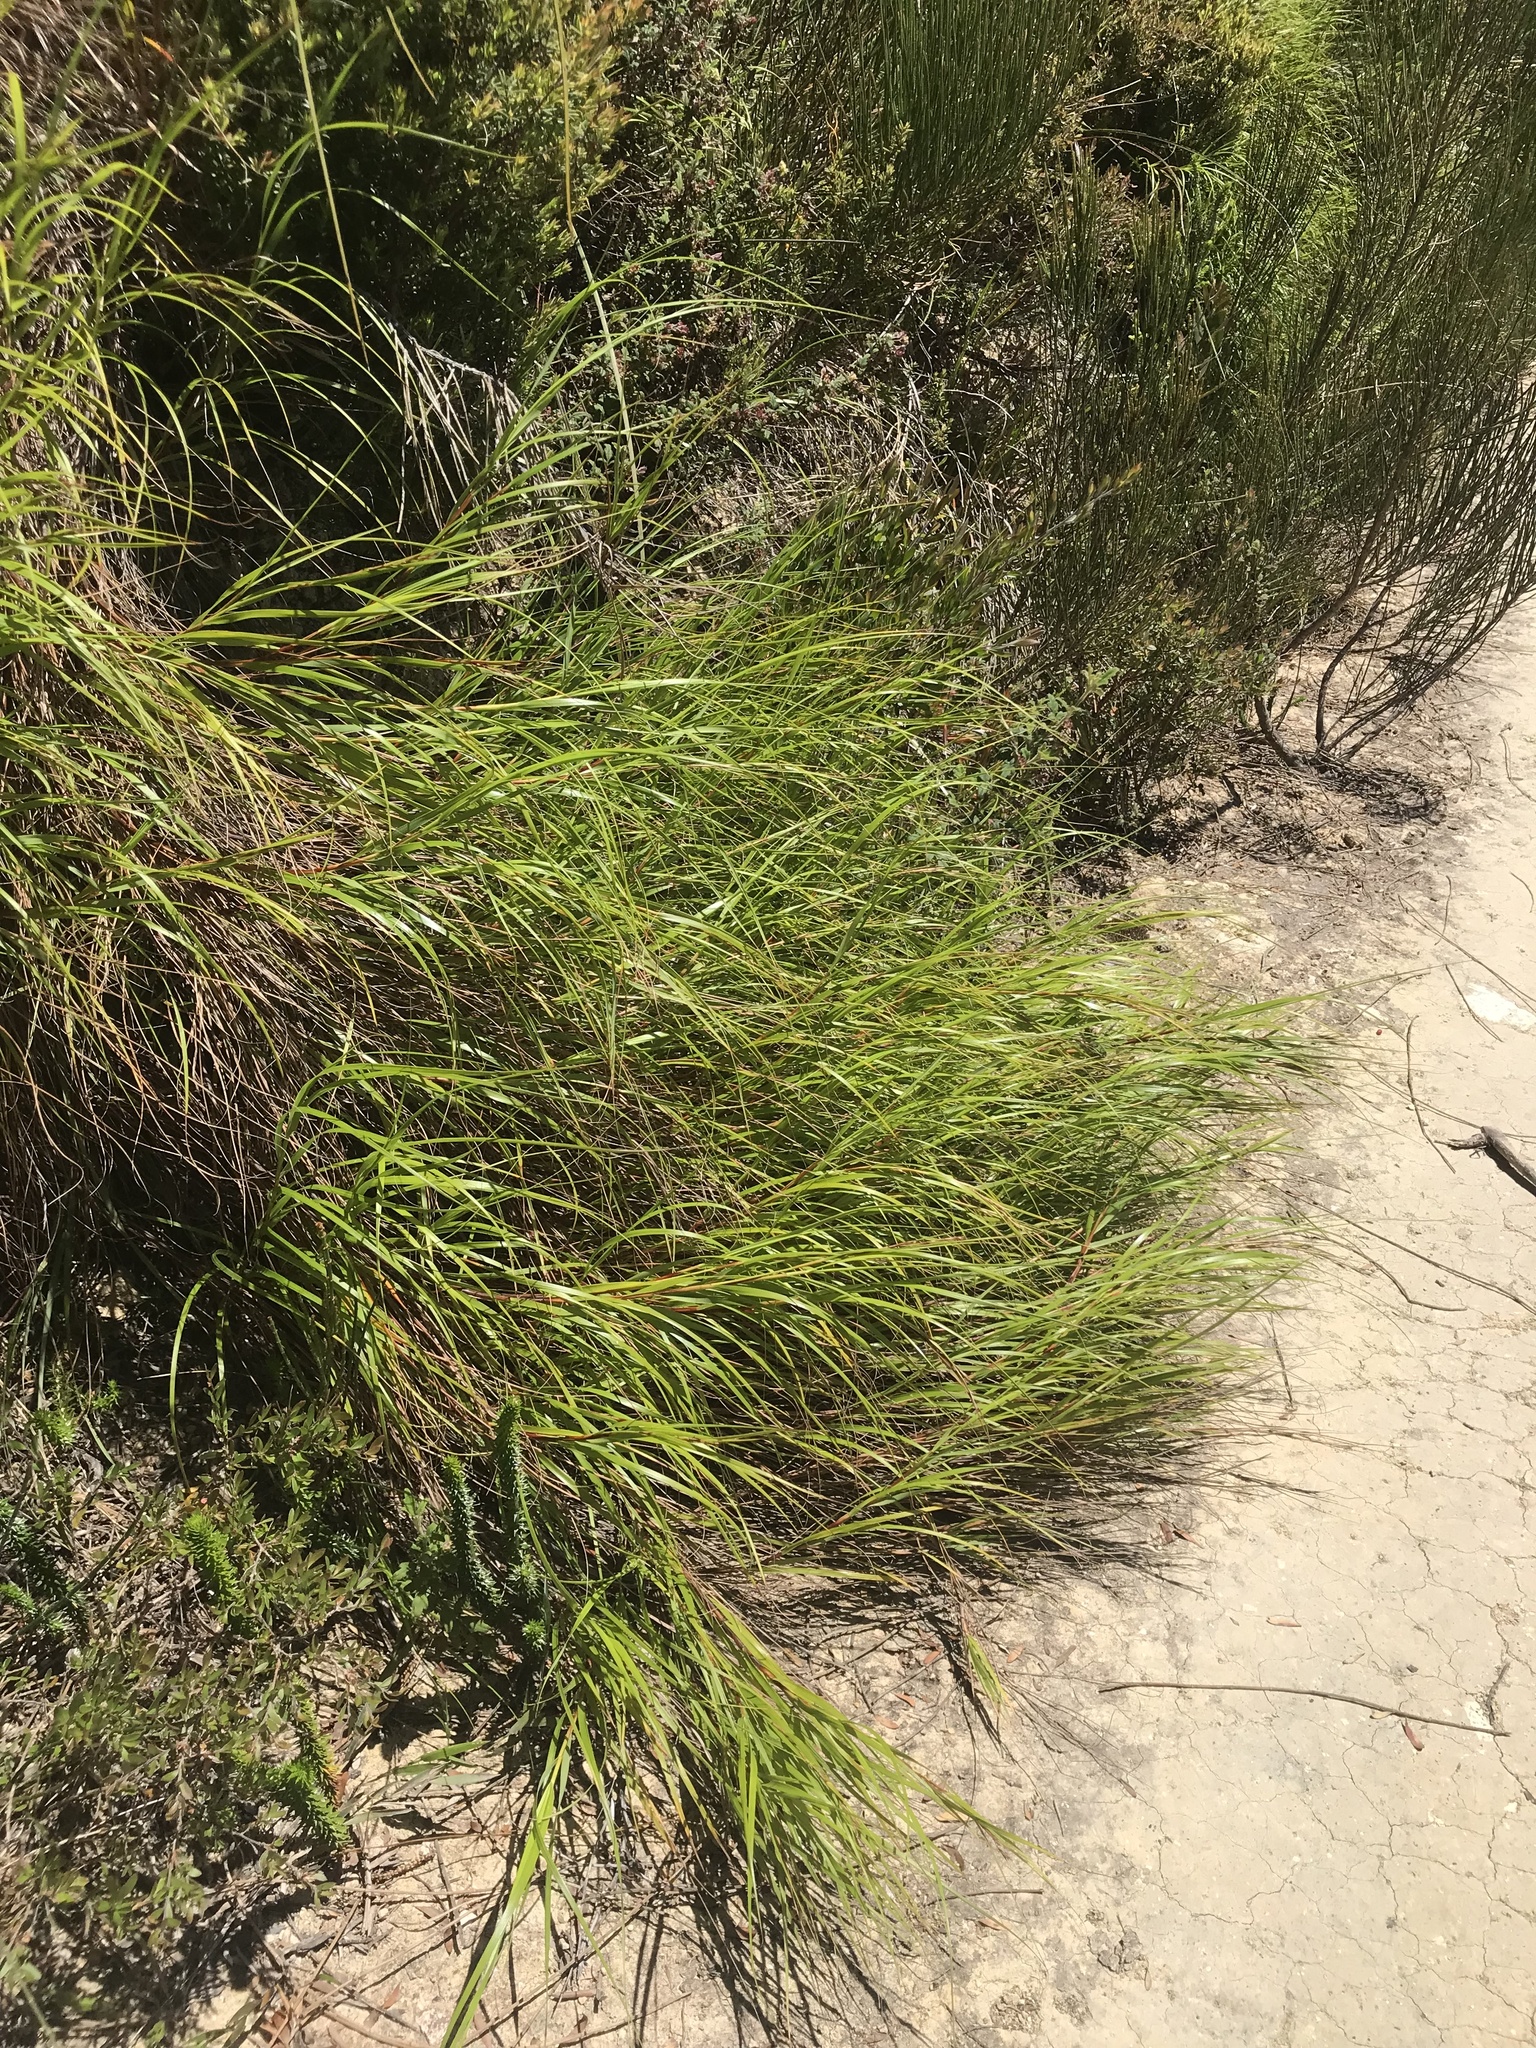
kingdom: Plantae
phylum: Tracheophyta
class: Liliopsida
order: Poales
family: Cyperaceae
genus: Gahnia
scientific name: Gahnia insignis
